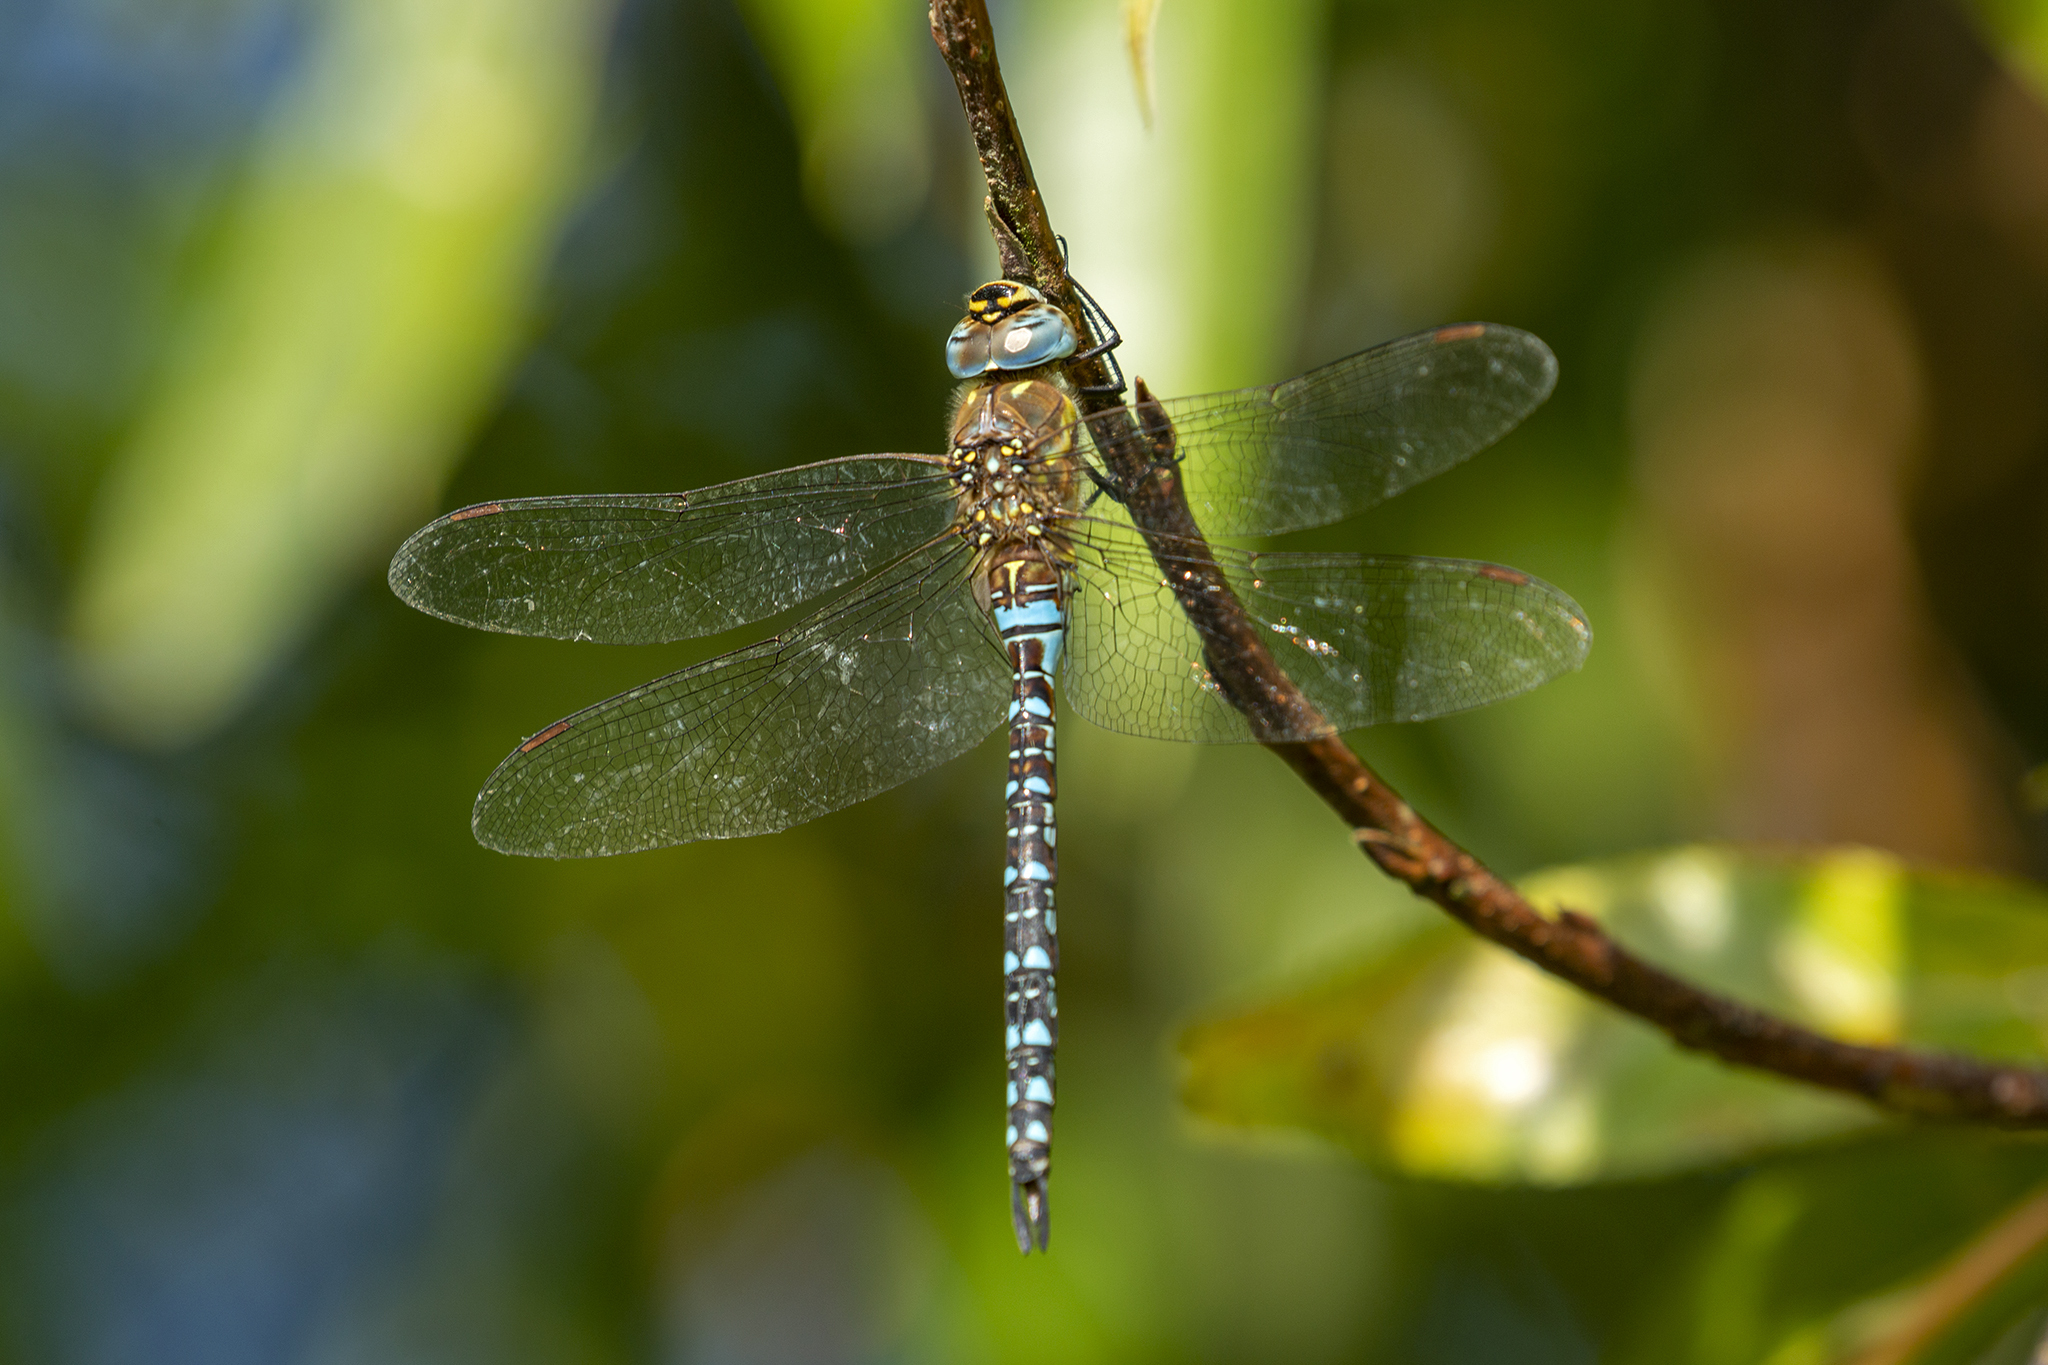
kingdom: Animalia
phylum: Arthropoda
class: Insecta
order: Odonata
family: Aeshnidae
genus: Aeshna
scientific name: Aeshna mixta
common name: Migrant hawker
